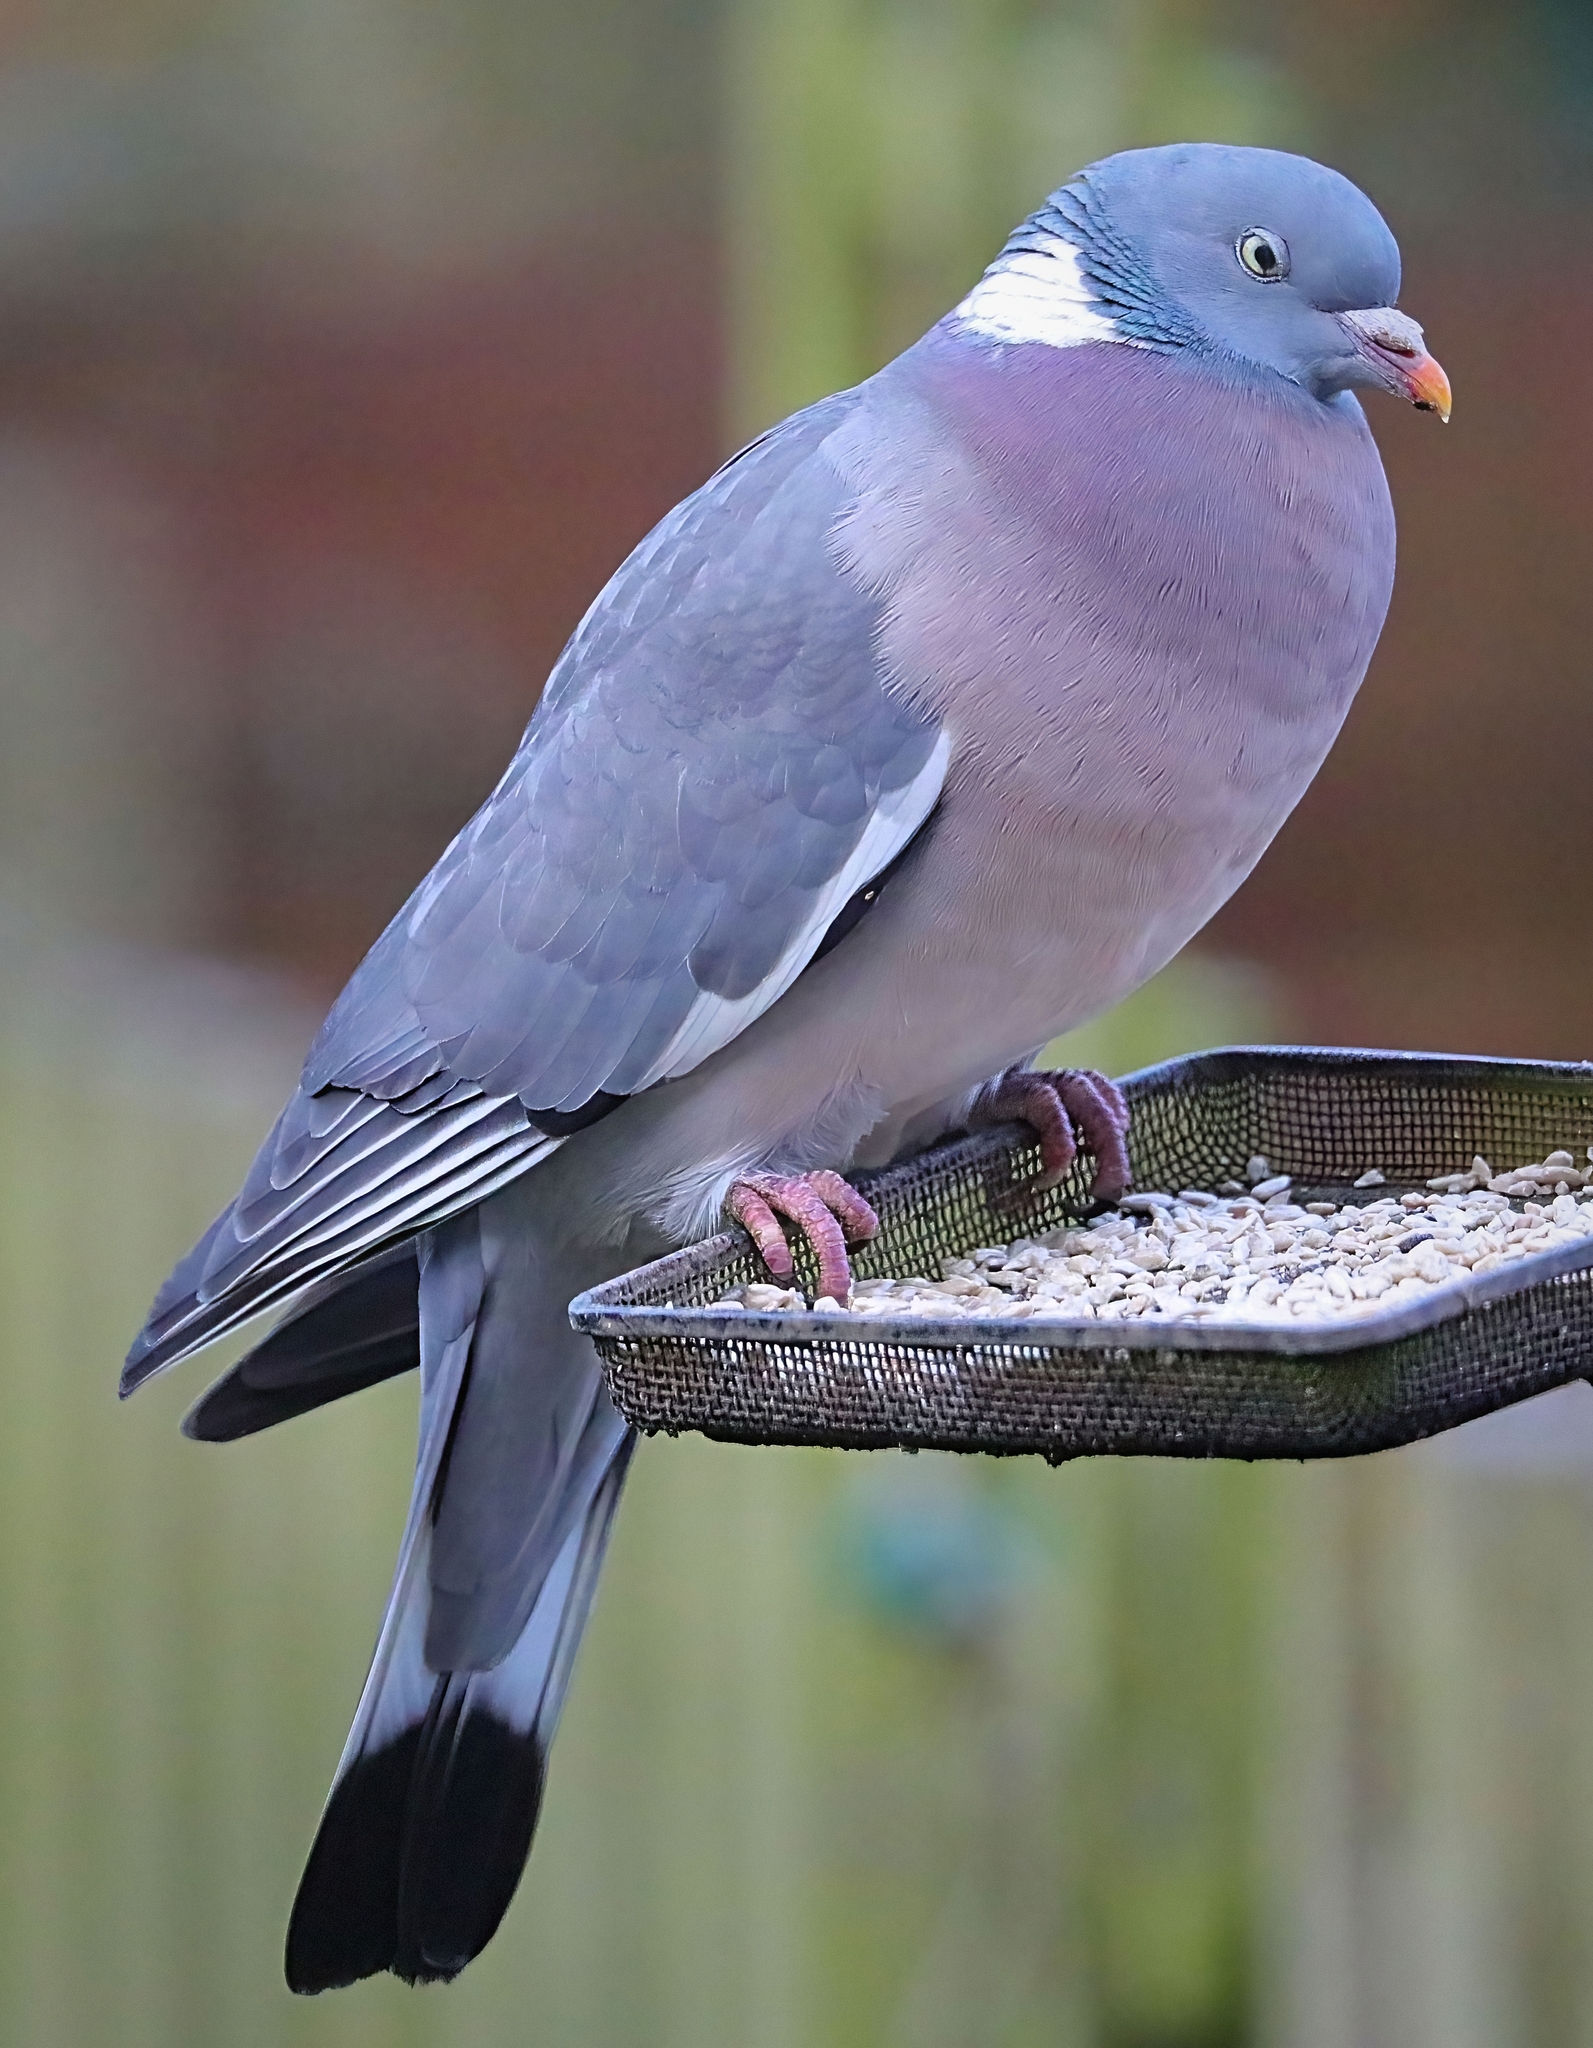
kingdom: Animalia
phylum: Chordata
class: Aves
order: Columbiformes
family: Columbidae
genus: Columba
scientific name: Columba palumbus
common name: Common wood pigeon
